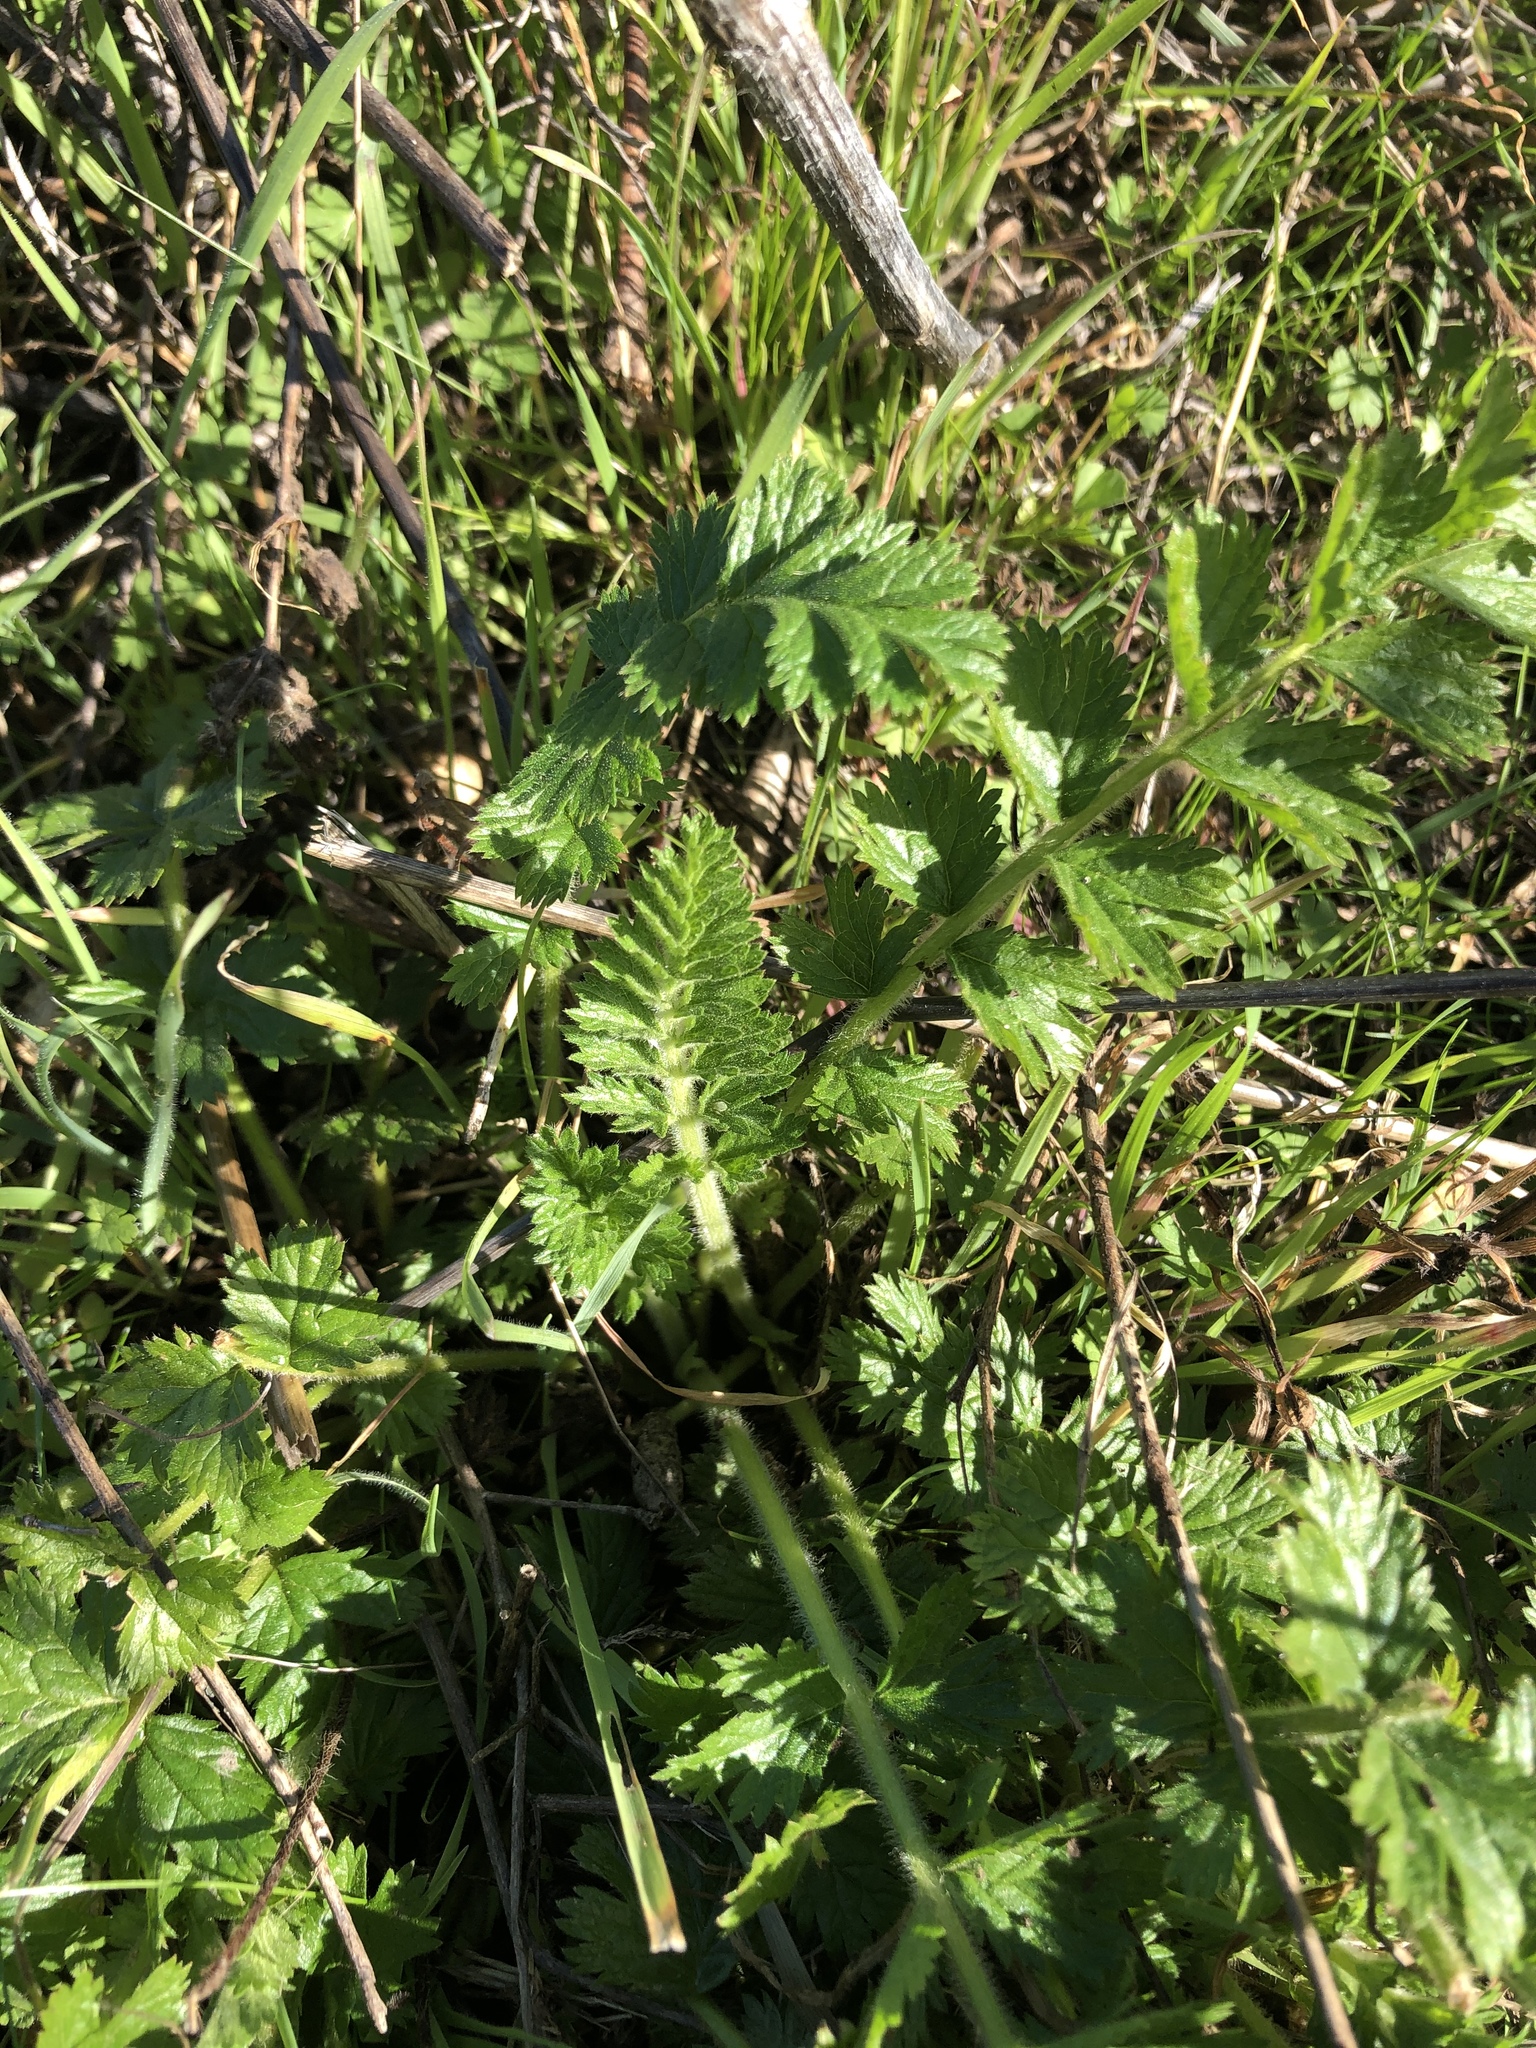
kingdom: Plantae
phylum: Tracheophyta
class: Magnoliopsida
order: Rosales
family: Rosaceae
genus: Potentilla
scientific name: Potentilla californica
